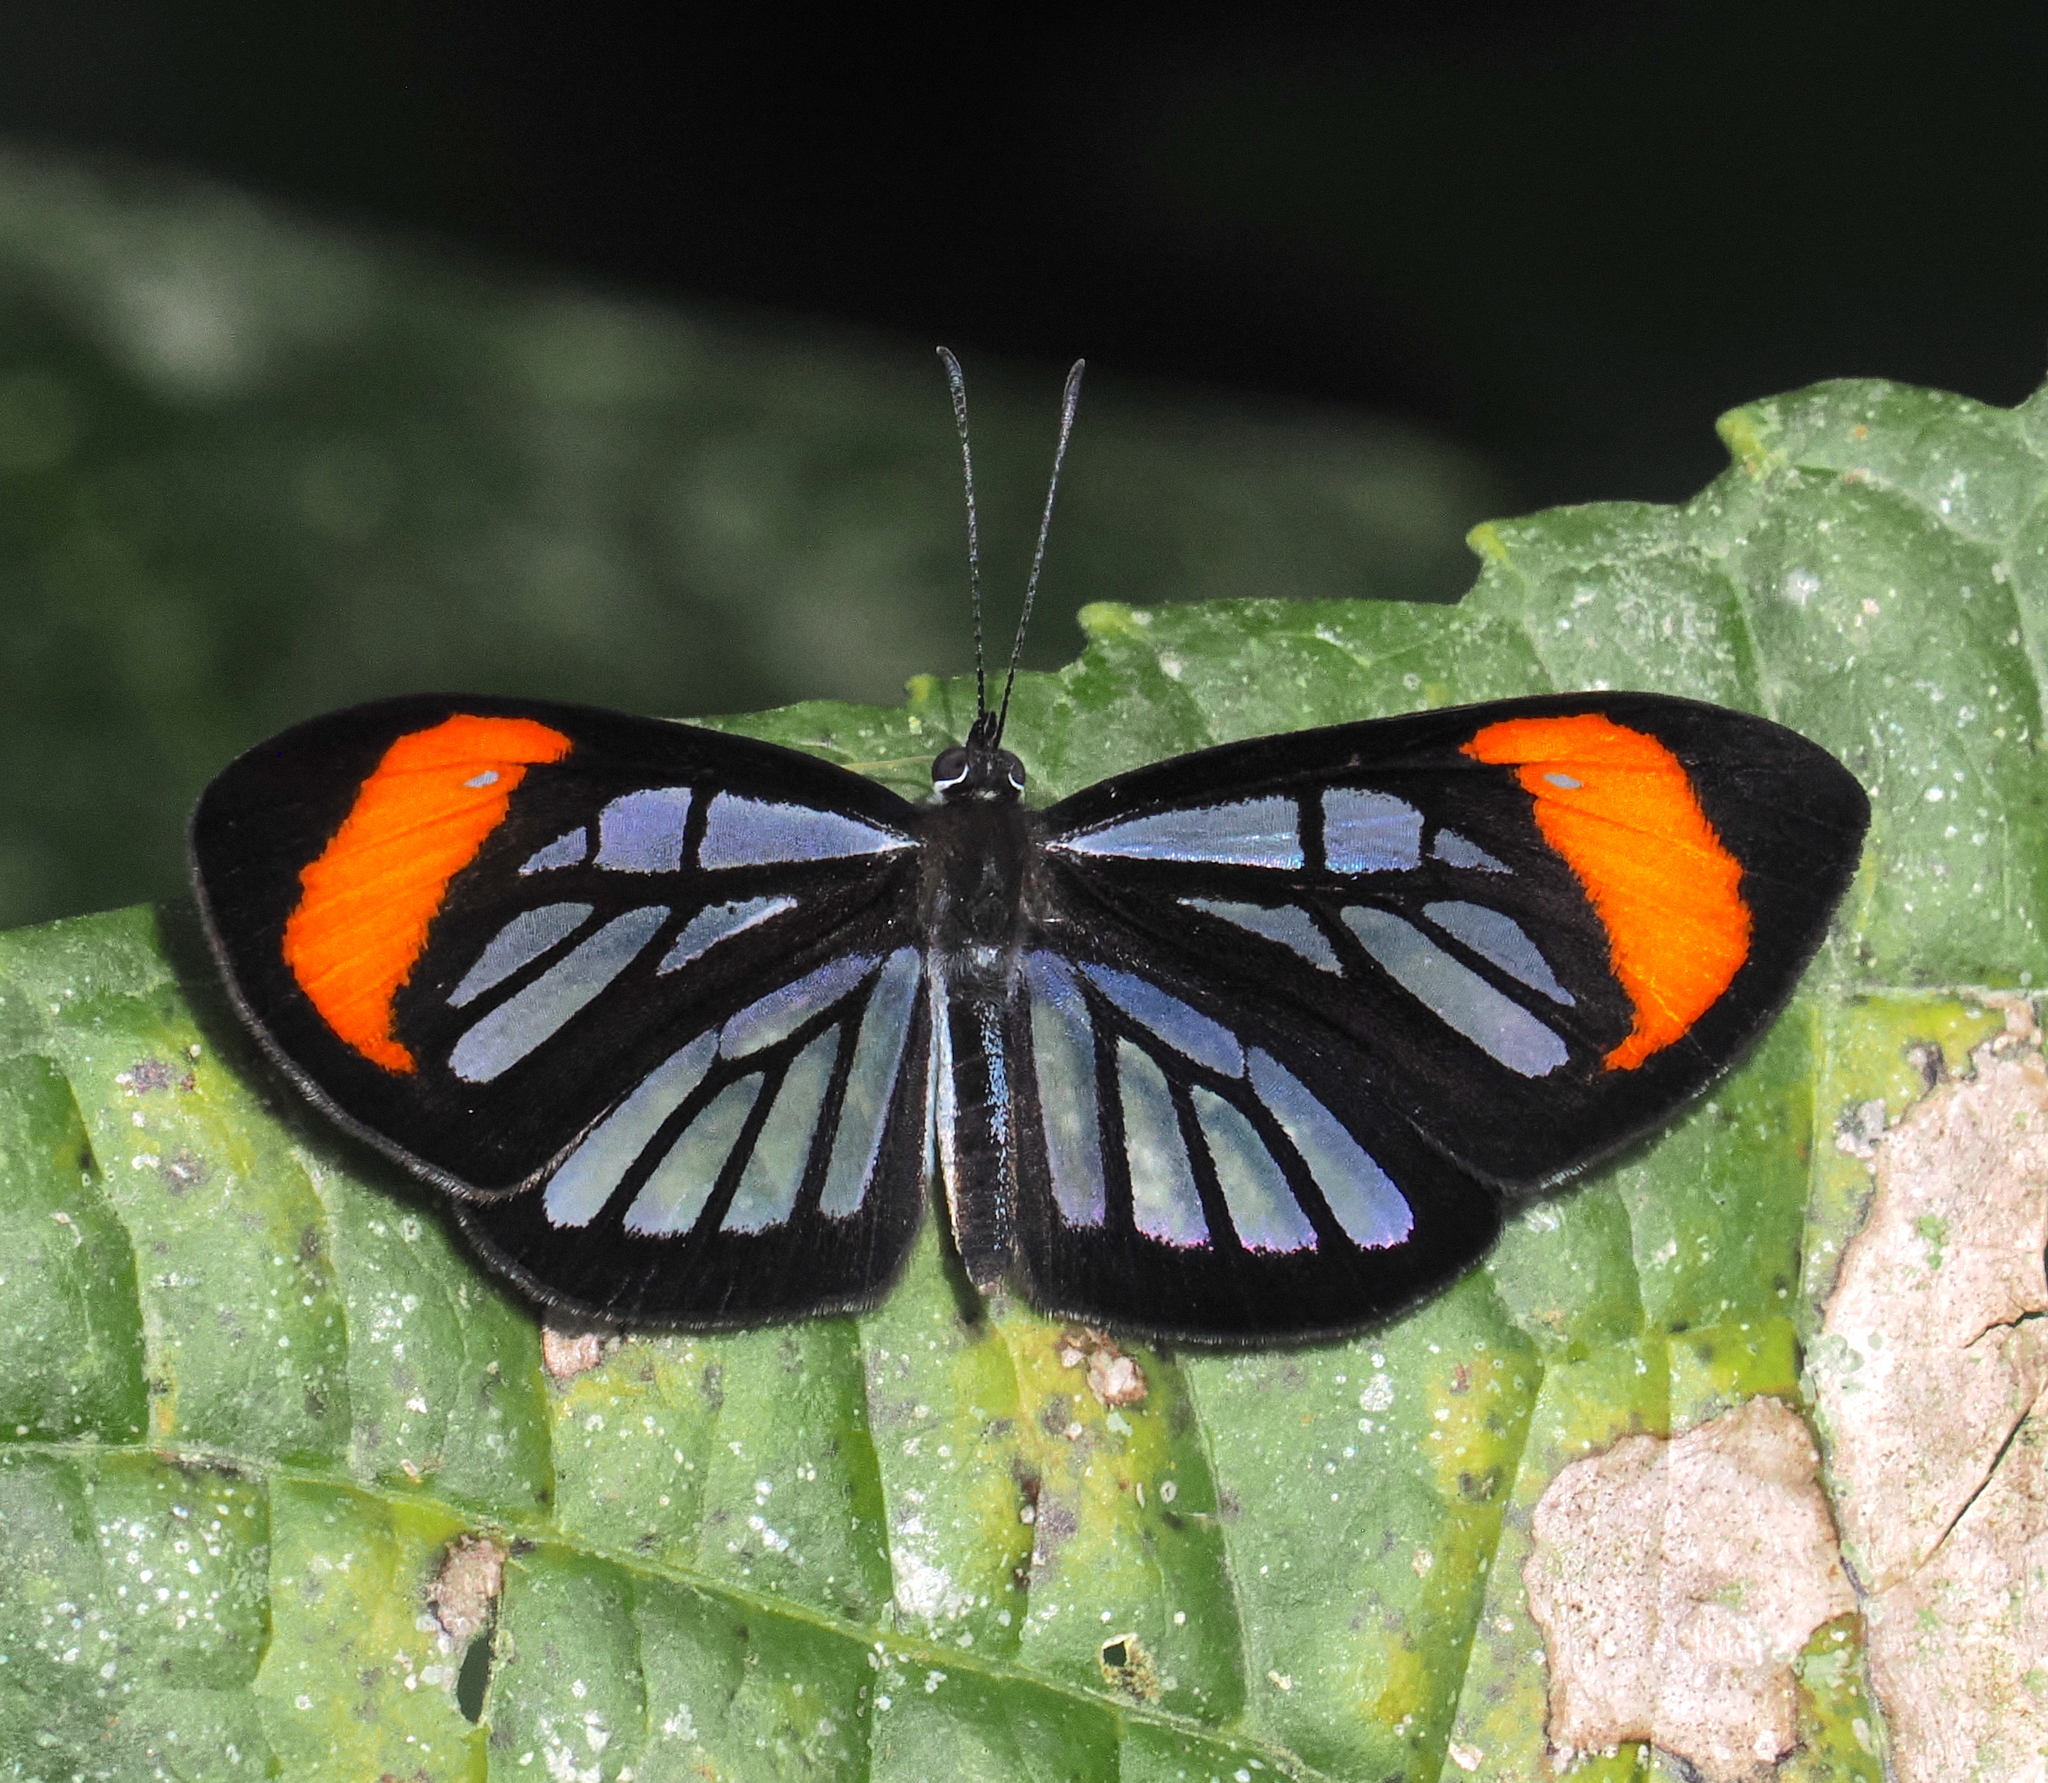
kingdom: Animalia
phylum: Arthropoda
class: Insecta
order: Lepidoptera
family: Riodinidae
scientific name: Riodinidae
